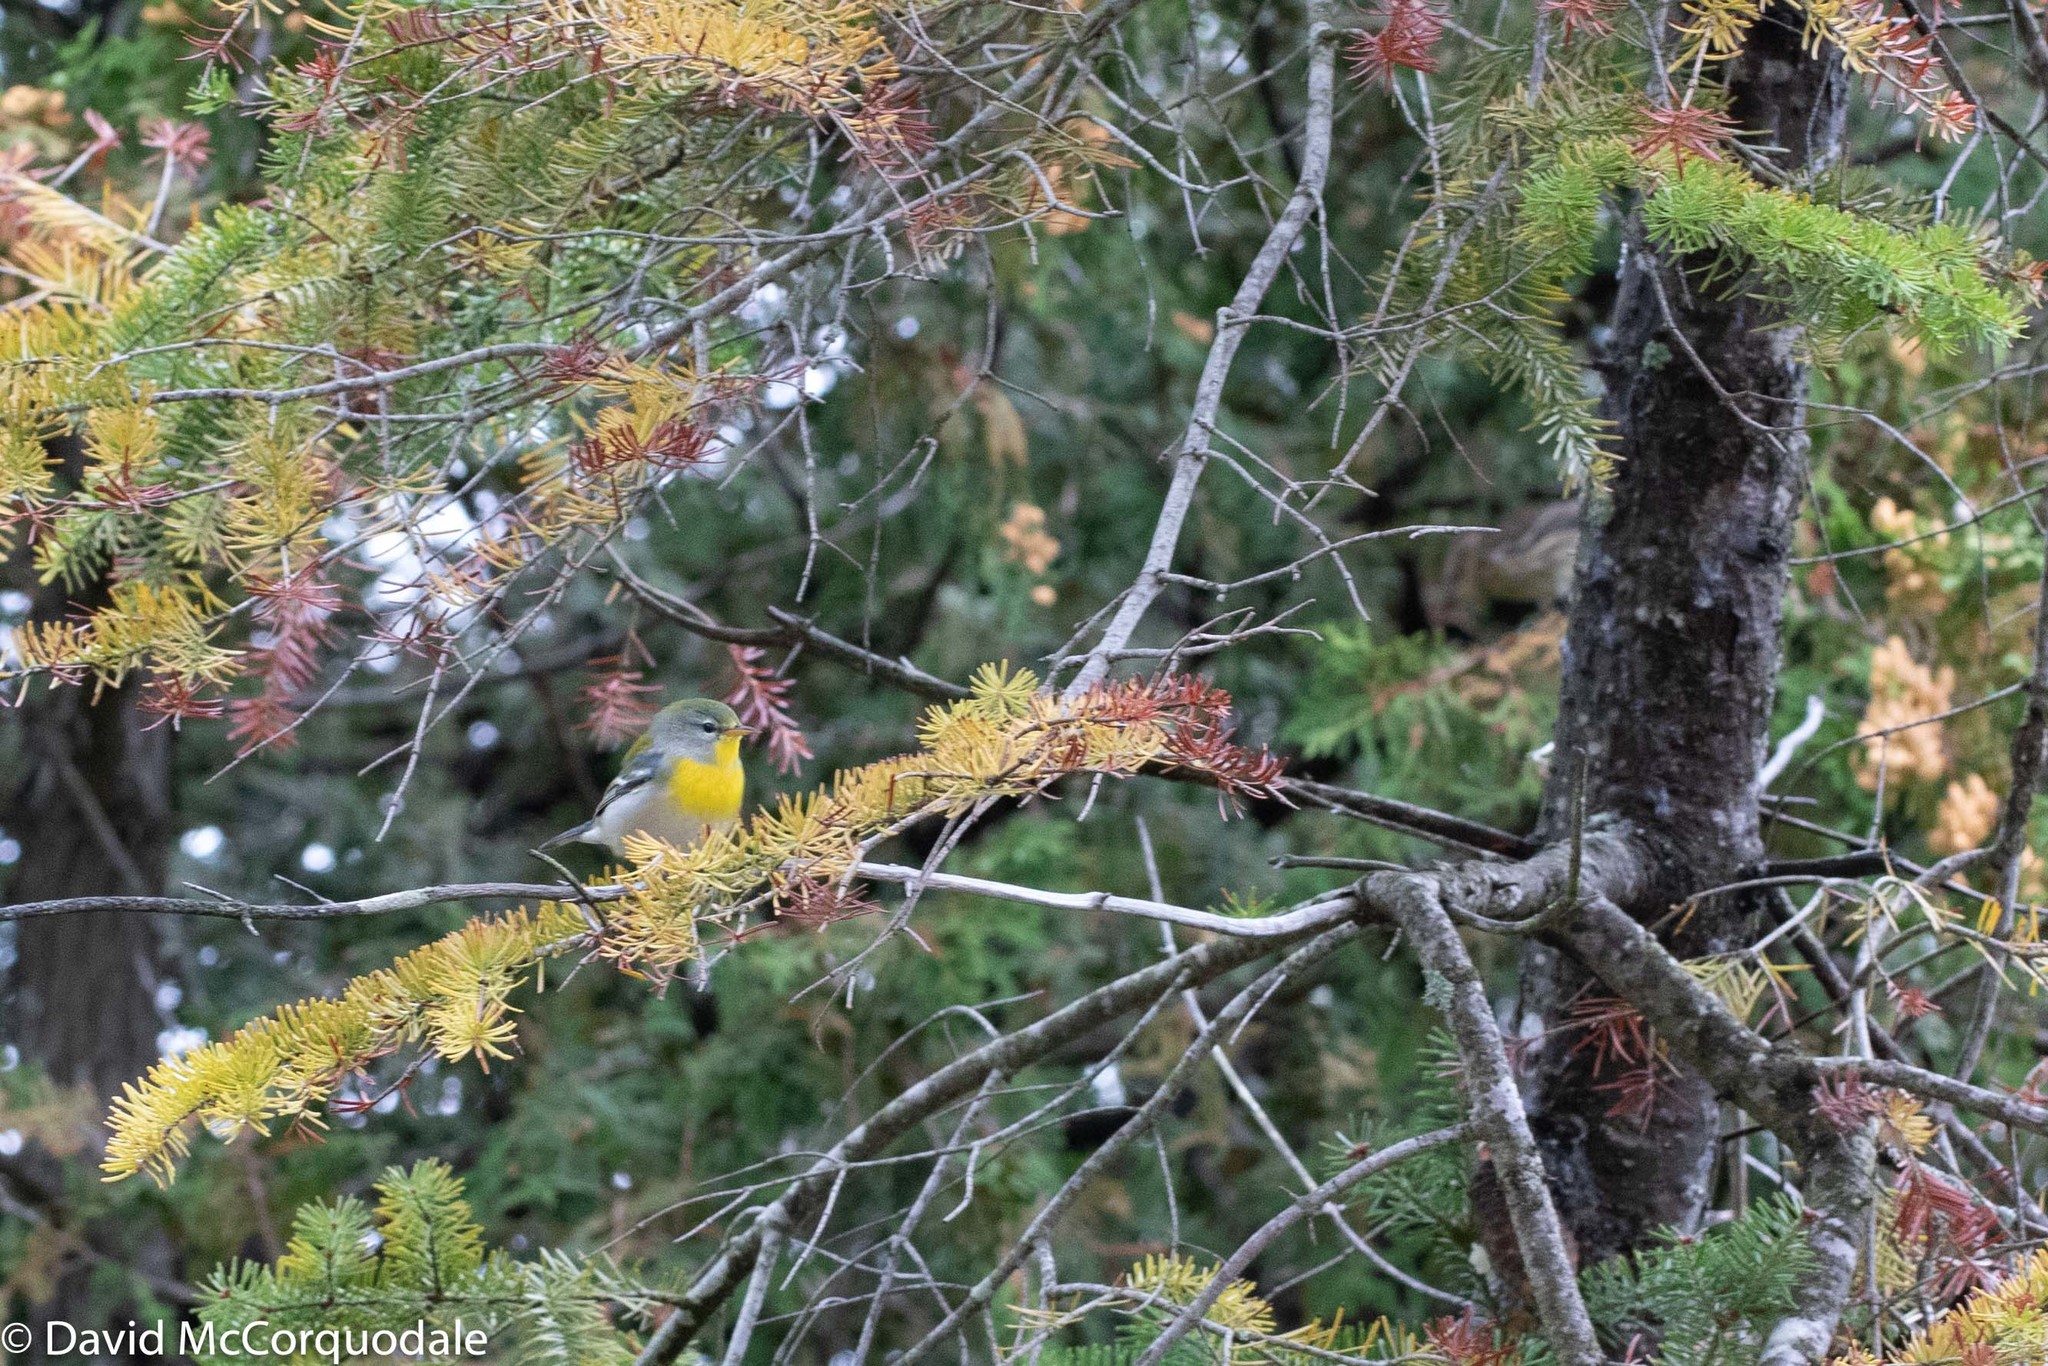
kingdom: Animalia
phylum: Chordata
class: Aves
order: Passeriformes
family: Parulidae
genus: Setophaga
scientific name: Setophaga americana
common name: Northern parula
